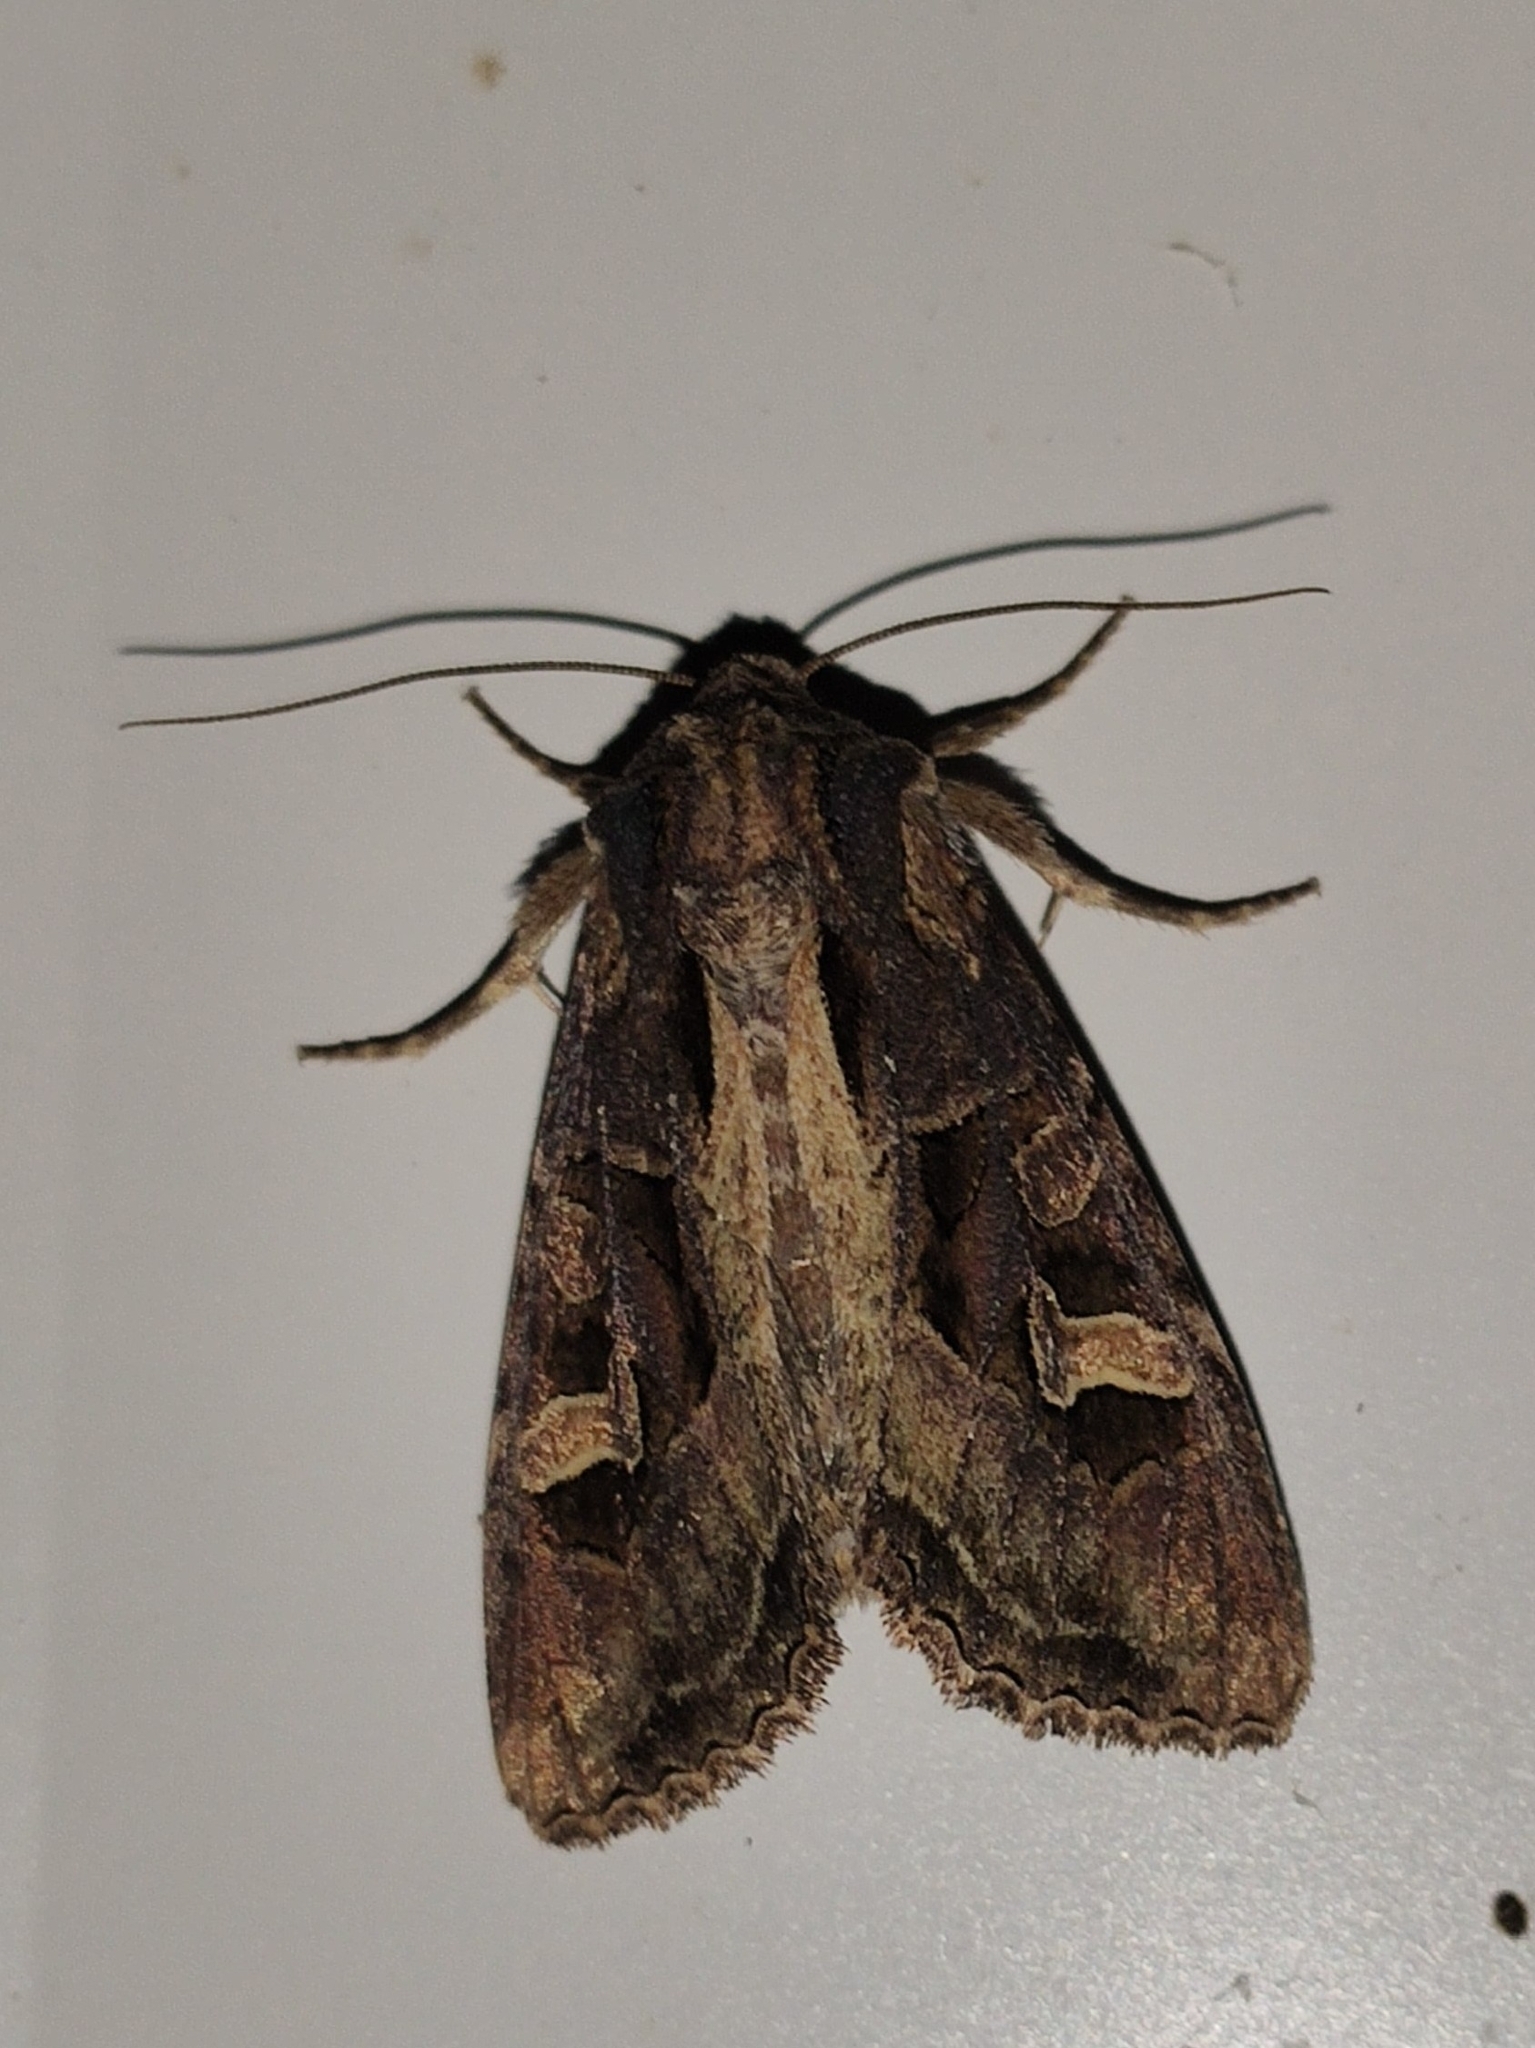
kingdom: Animalia
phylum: Arthropoda
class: Insecta
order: Lepidoptera
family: Noctuidae
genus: Trigonophora
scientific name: Trigonophora flammea
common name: Flame brocade
